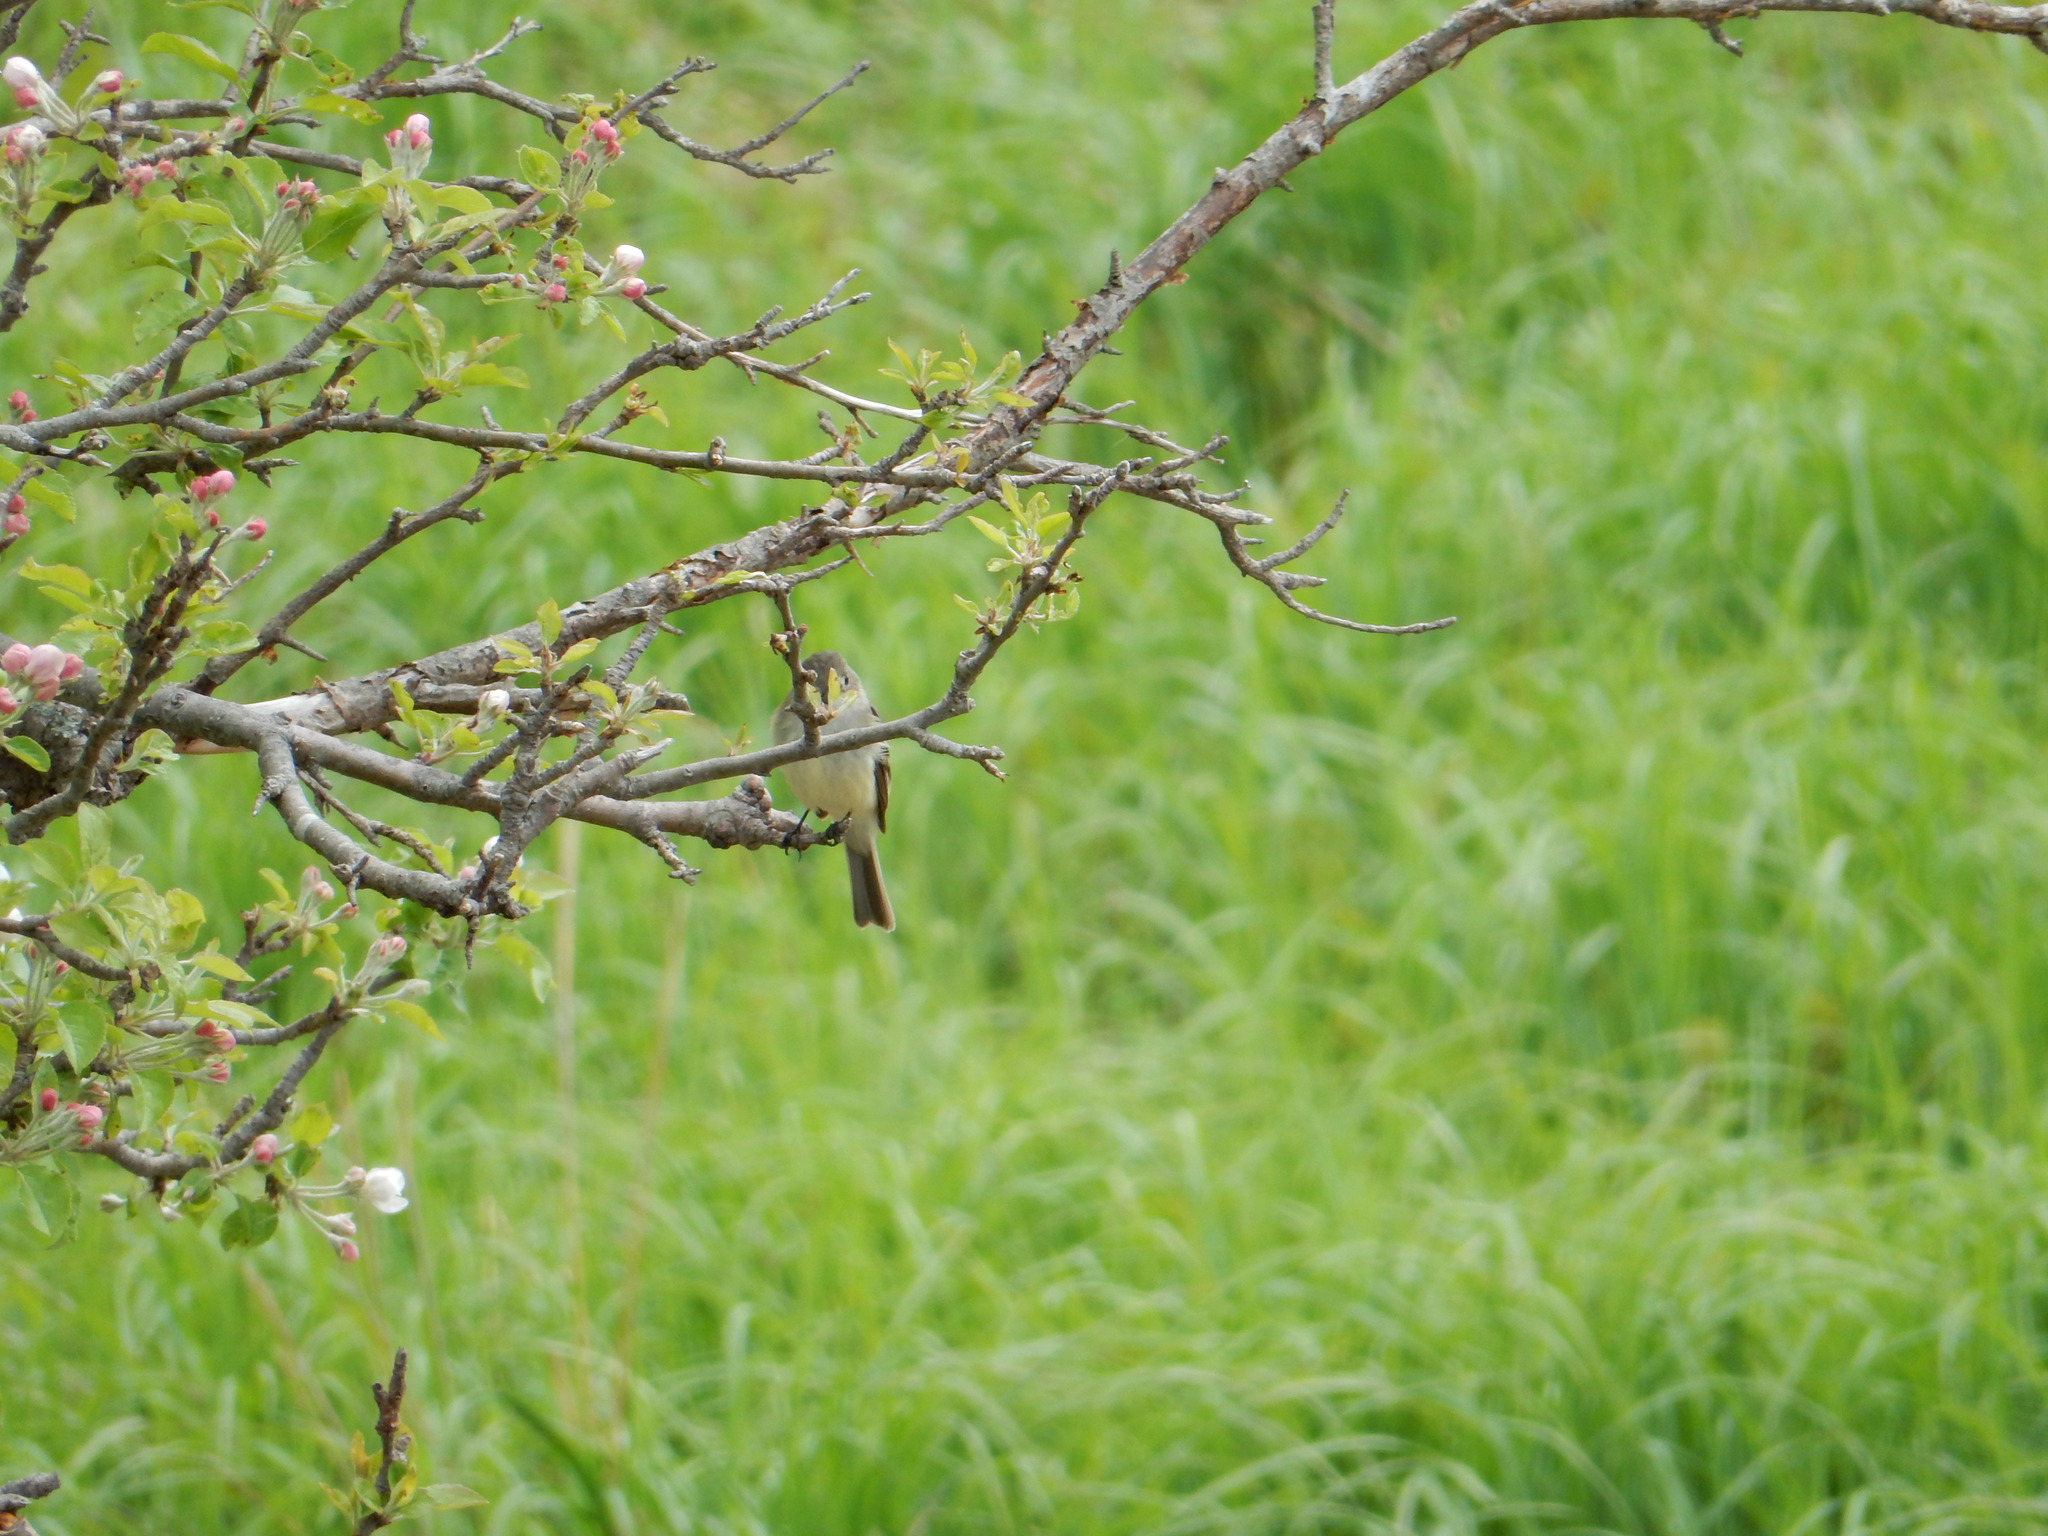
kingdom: Animalia
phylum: Chordata
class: Aves
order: Passeriformes
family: Tyrannidae
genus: Empidonax
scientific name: Empidonax
